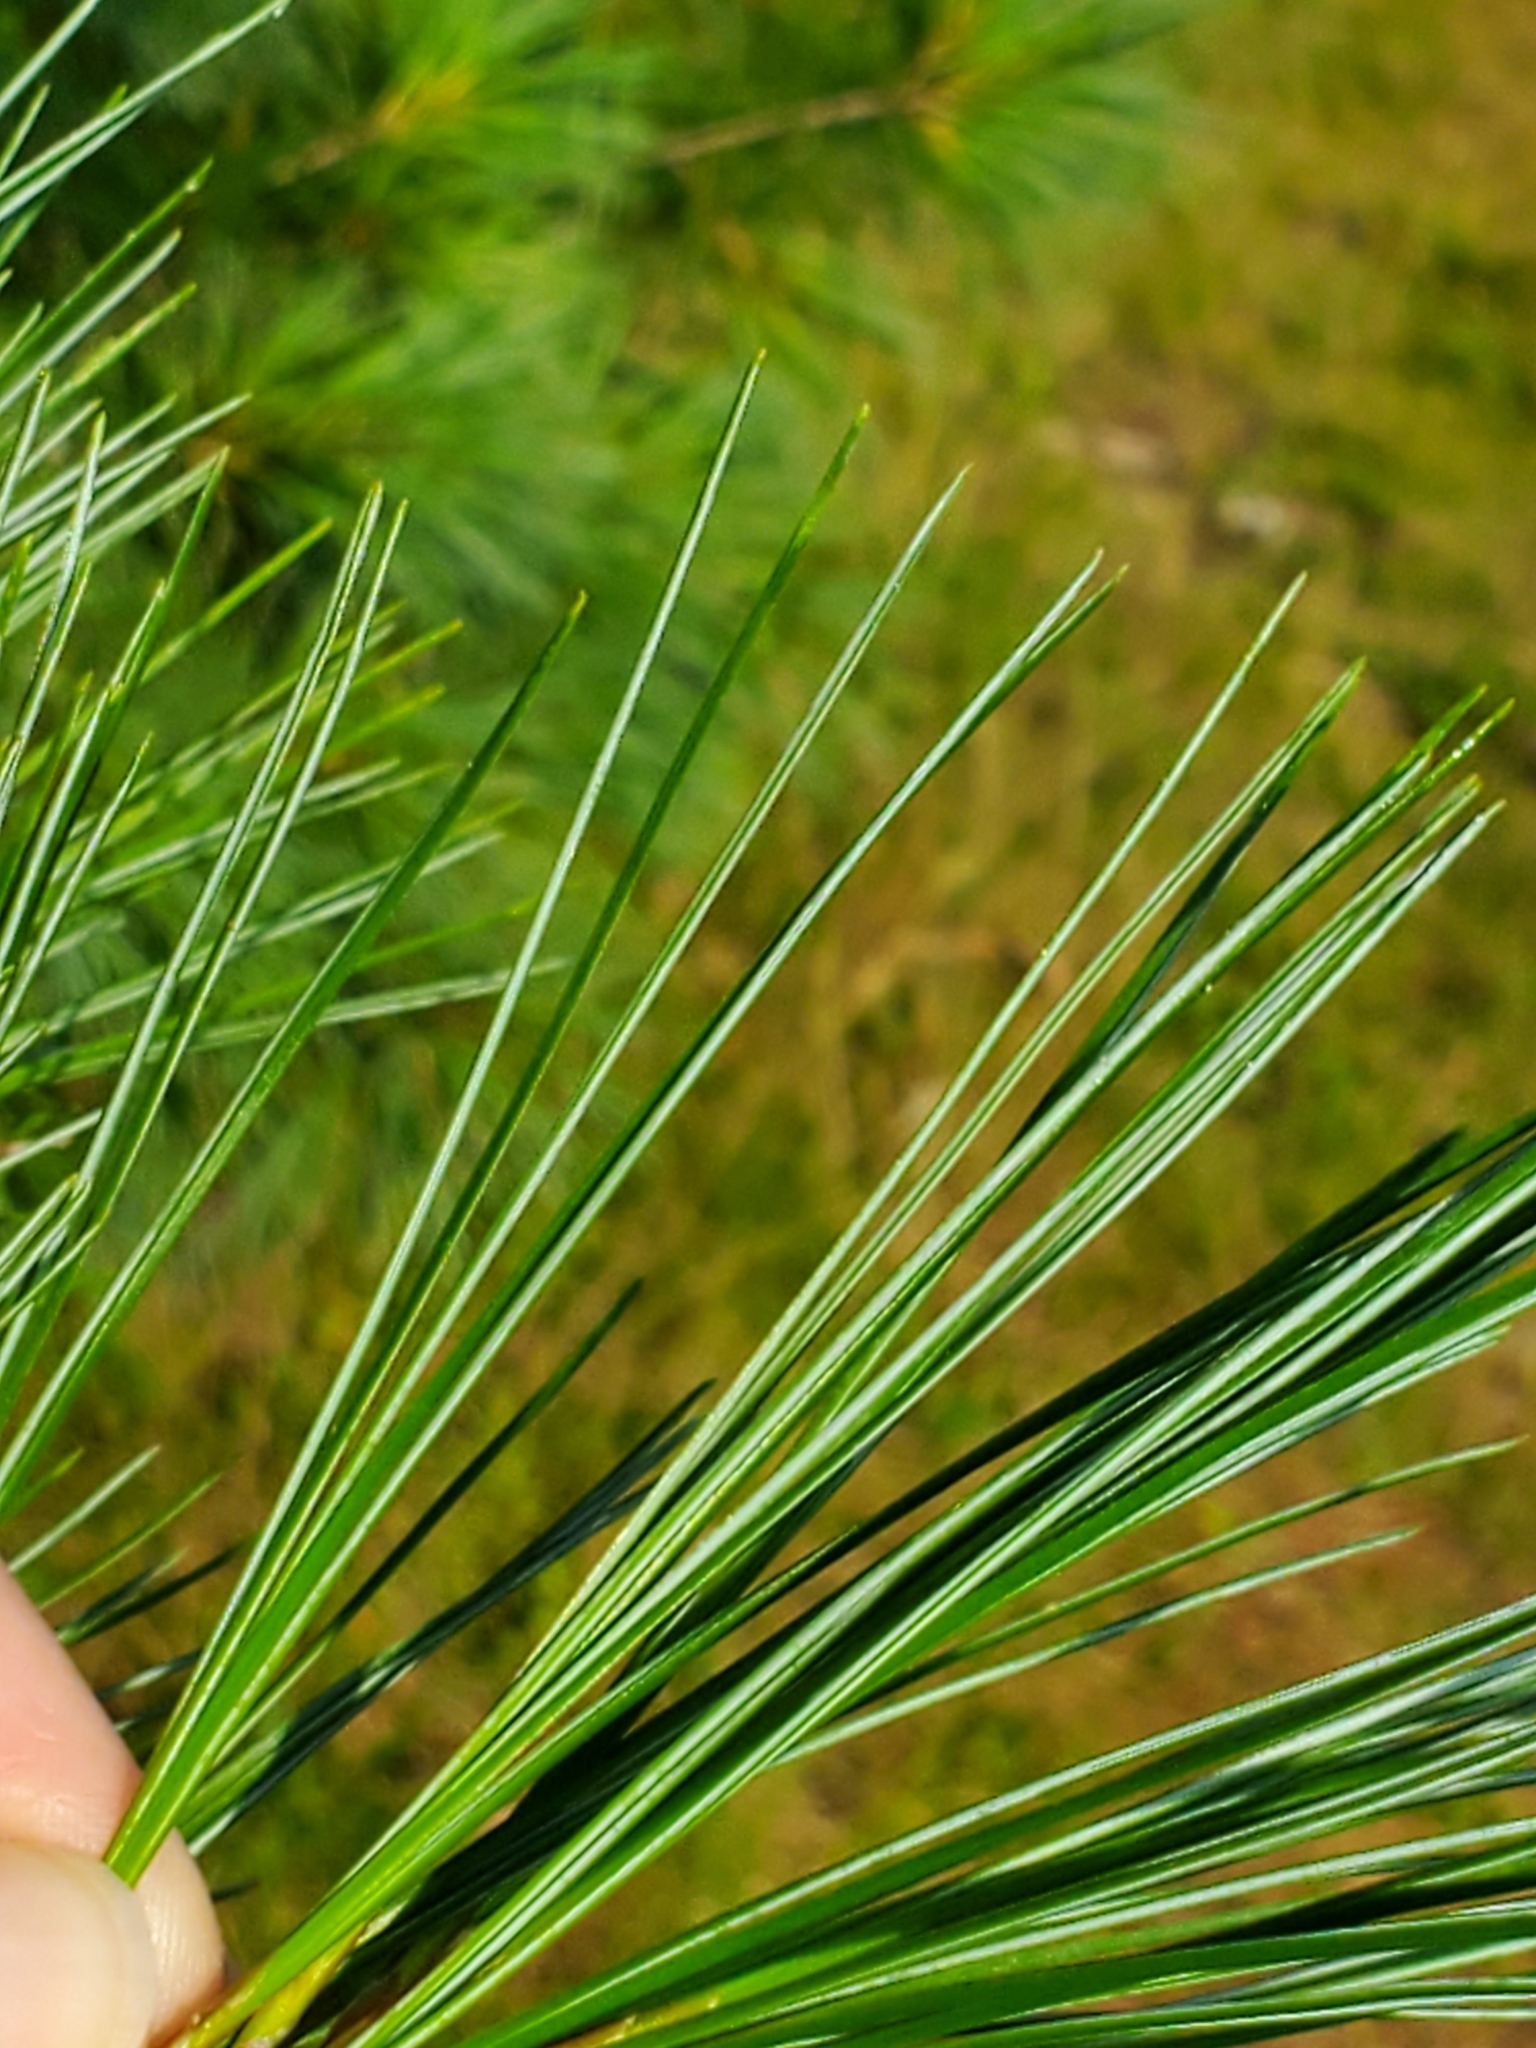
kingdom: Plantae
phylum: Tracheophyta
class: Pinopsida
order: Pinales
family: Pinaceae
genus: Pinus
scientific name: Pinus strobus
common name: Weymouth pine
